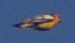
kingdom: Animalia
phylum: Chordata
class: Aves
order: Passeriformes
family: Icteridae
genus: Icterus
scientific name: Icterus bullockii
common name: Bullock's oriole
